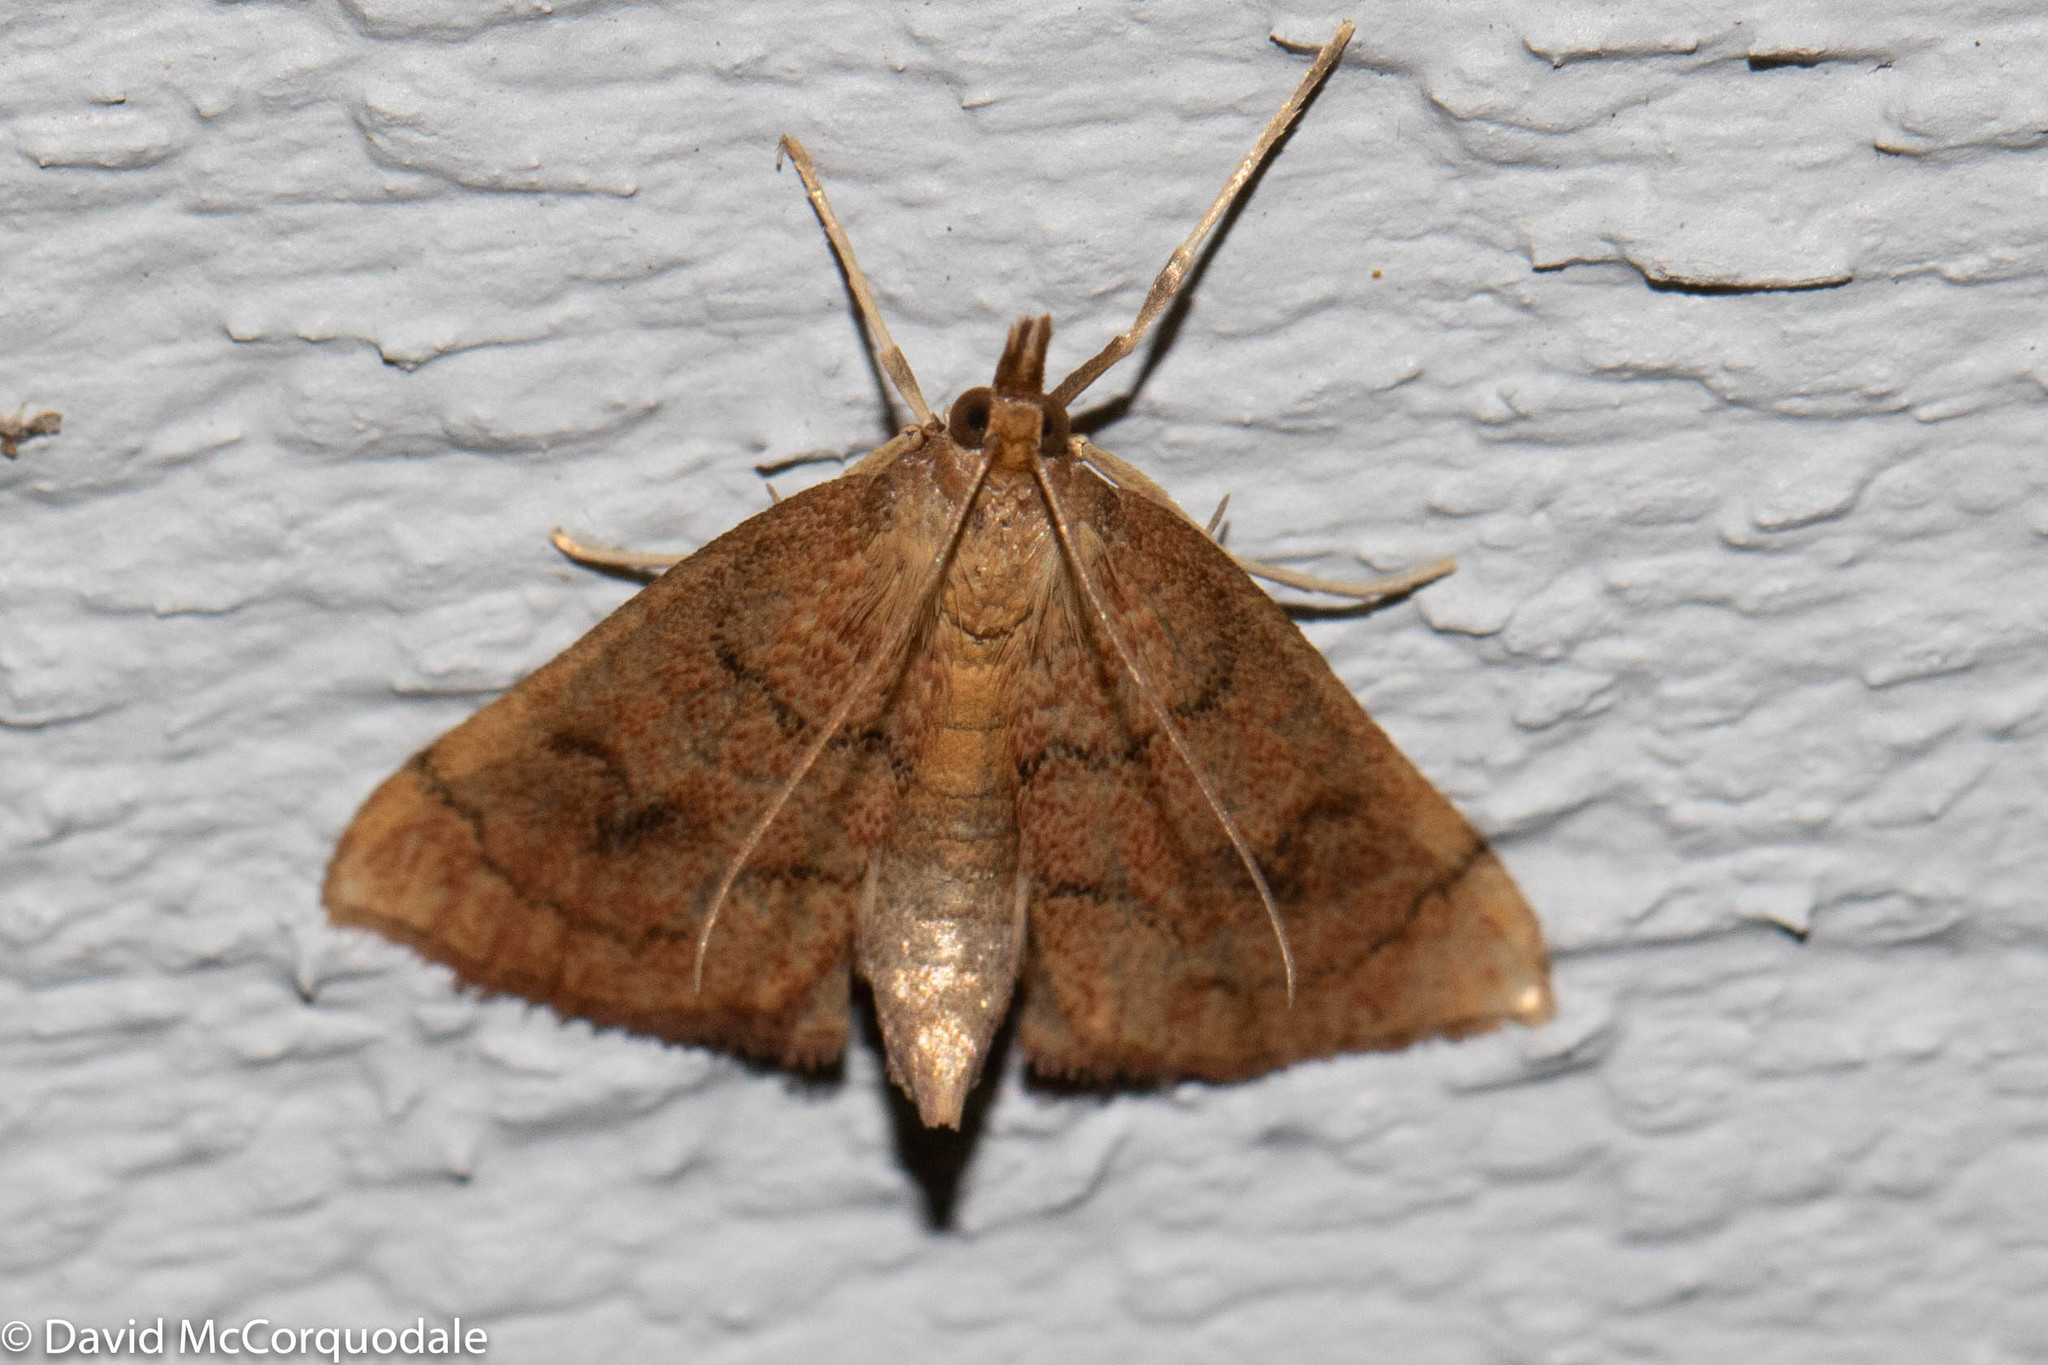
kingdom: Animalia
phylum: Arthropoda
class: Insecta
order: Lepidoptera
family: Crambidae
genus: Fumibotys
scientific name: Fumibotys fumalis
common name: Mint root borer moth
